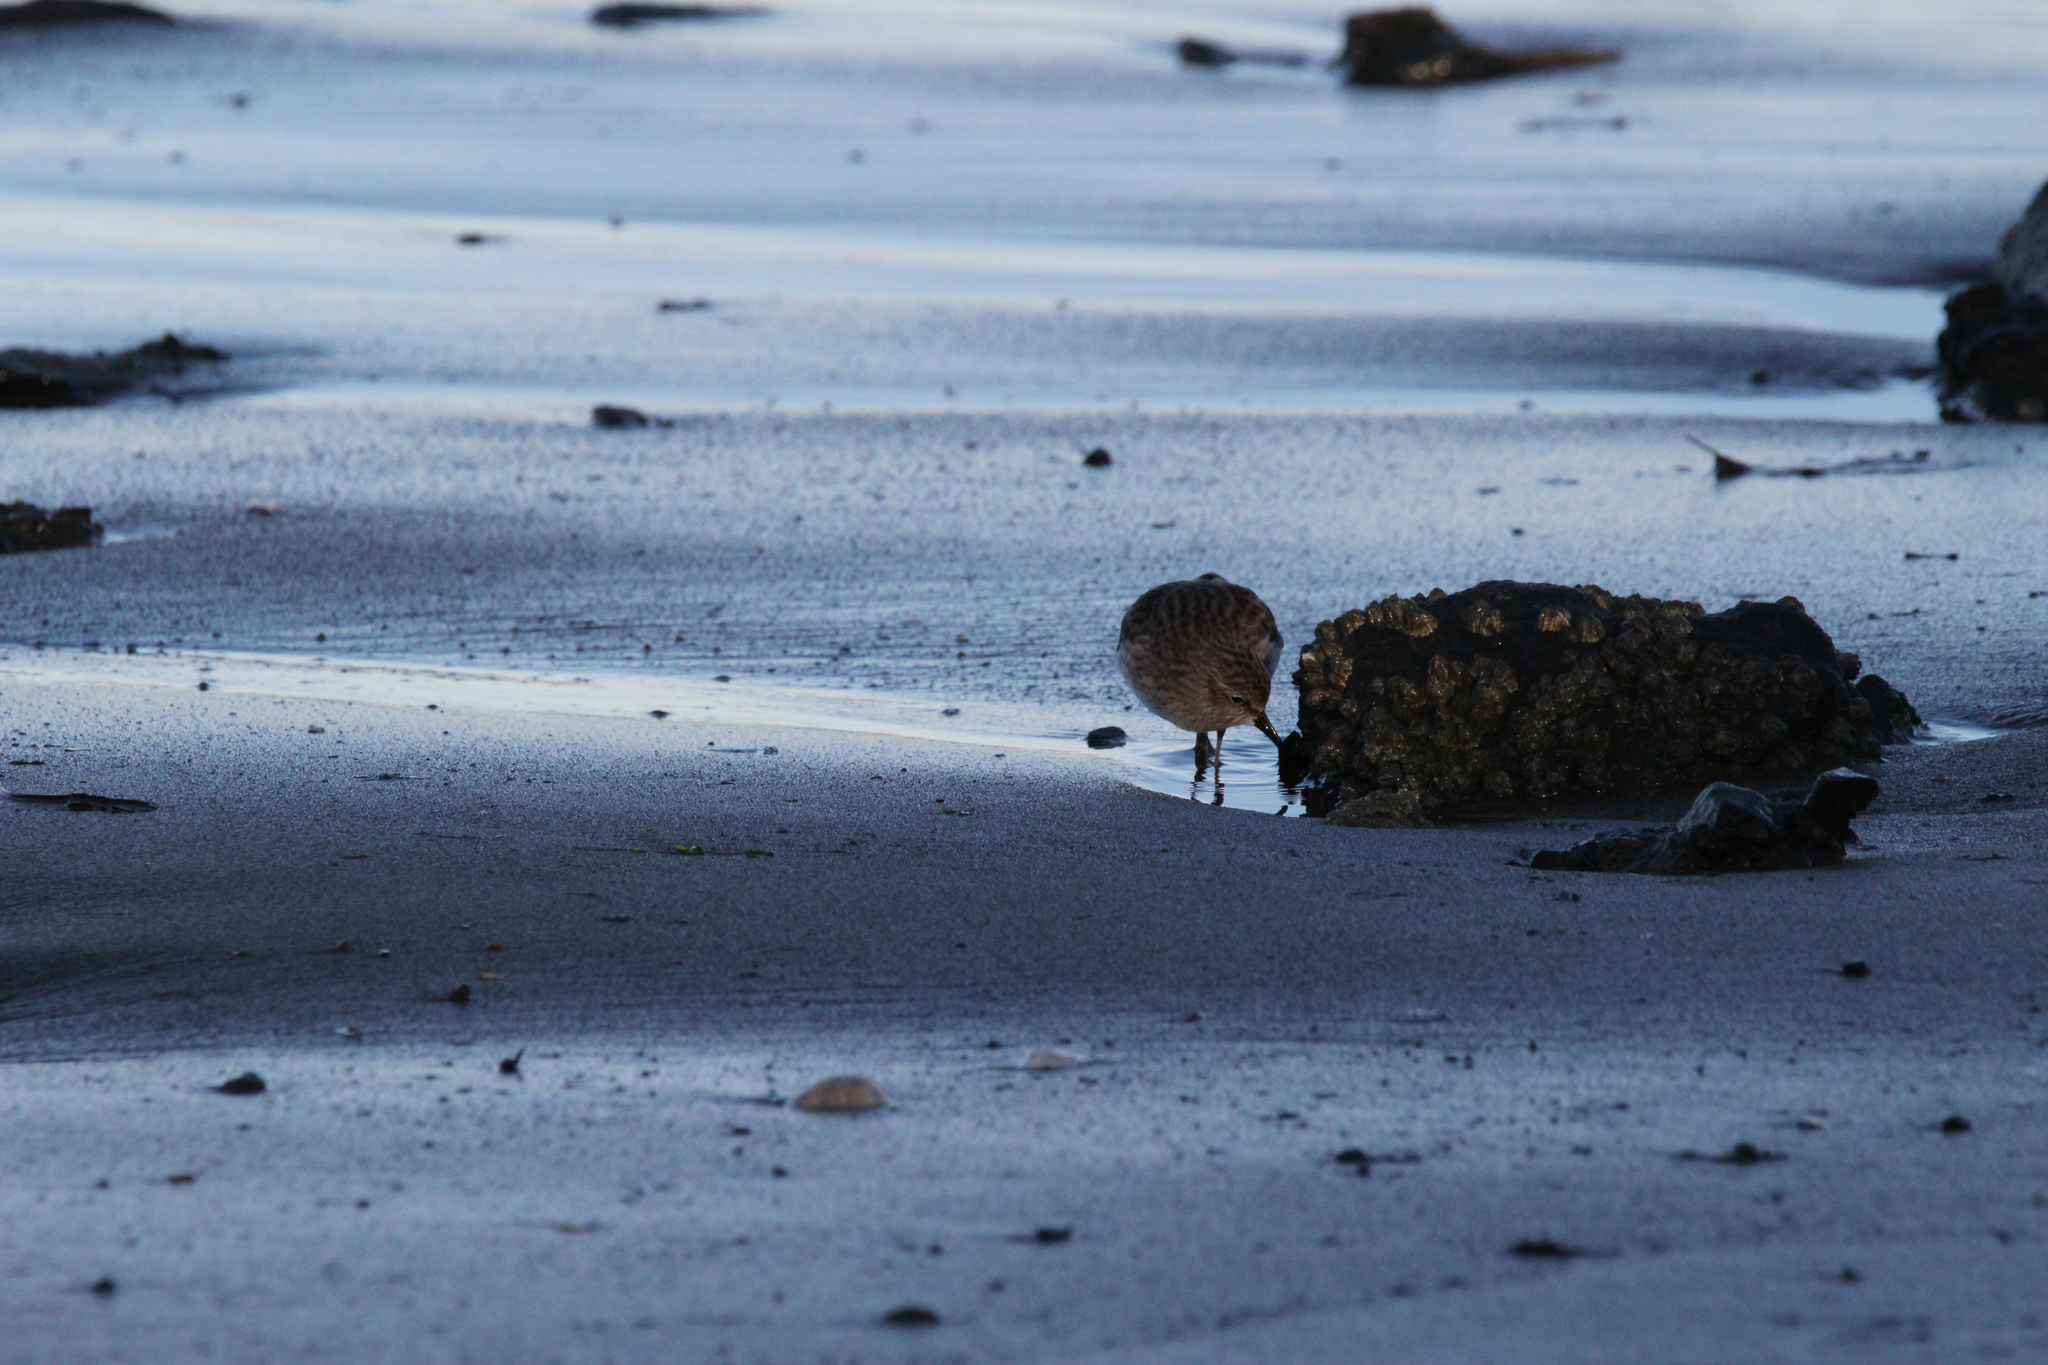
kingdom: Animalia
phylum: Chordata
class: Aves
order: Charadriiformes
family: Scolopacidae
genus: Calidris
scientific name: Calidris minutilla
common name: Least sandpiper
